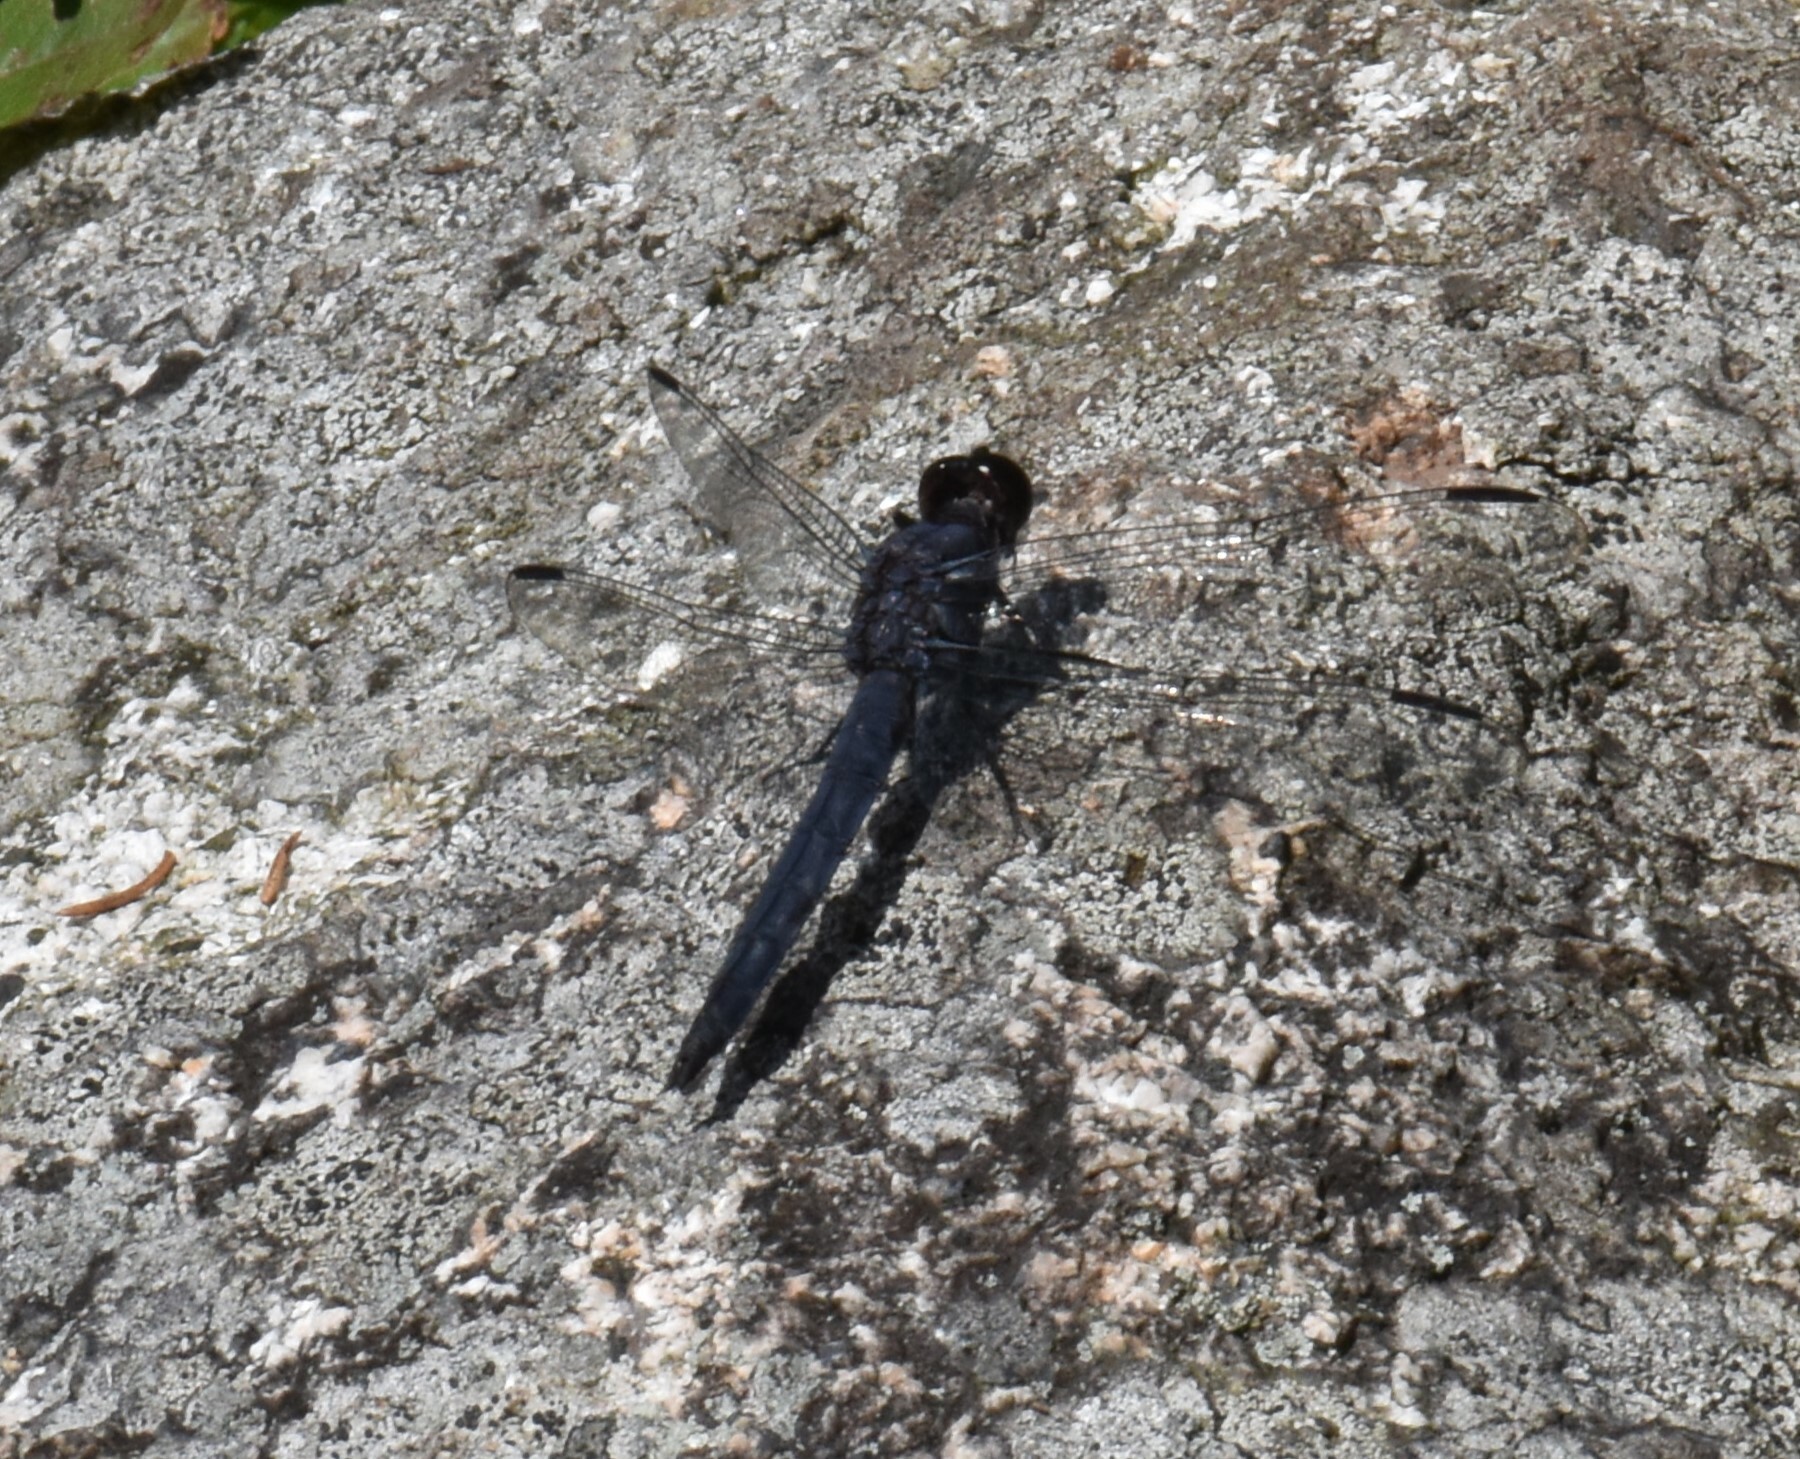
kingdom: Animalia
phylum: Arthropoda
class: Insecta
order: Odonata
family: Libellulidae
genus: Libellula
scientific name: Libellula incesta
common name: Slaty skimmer
